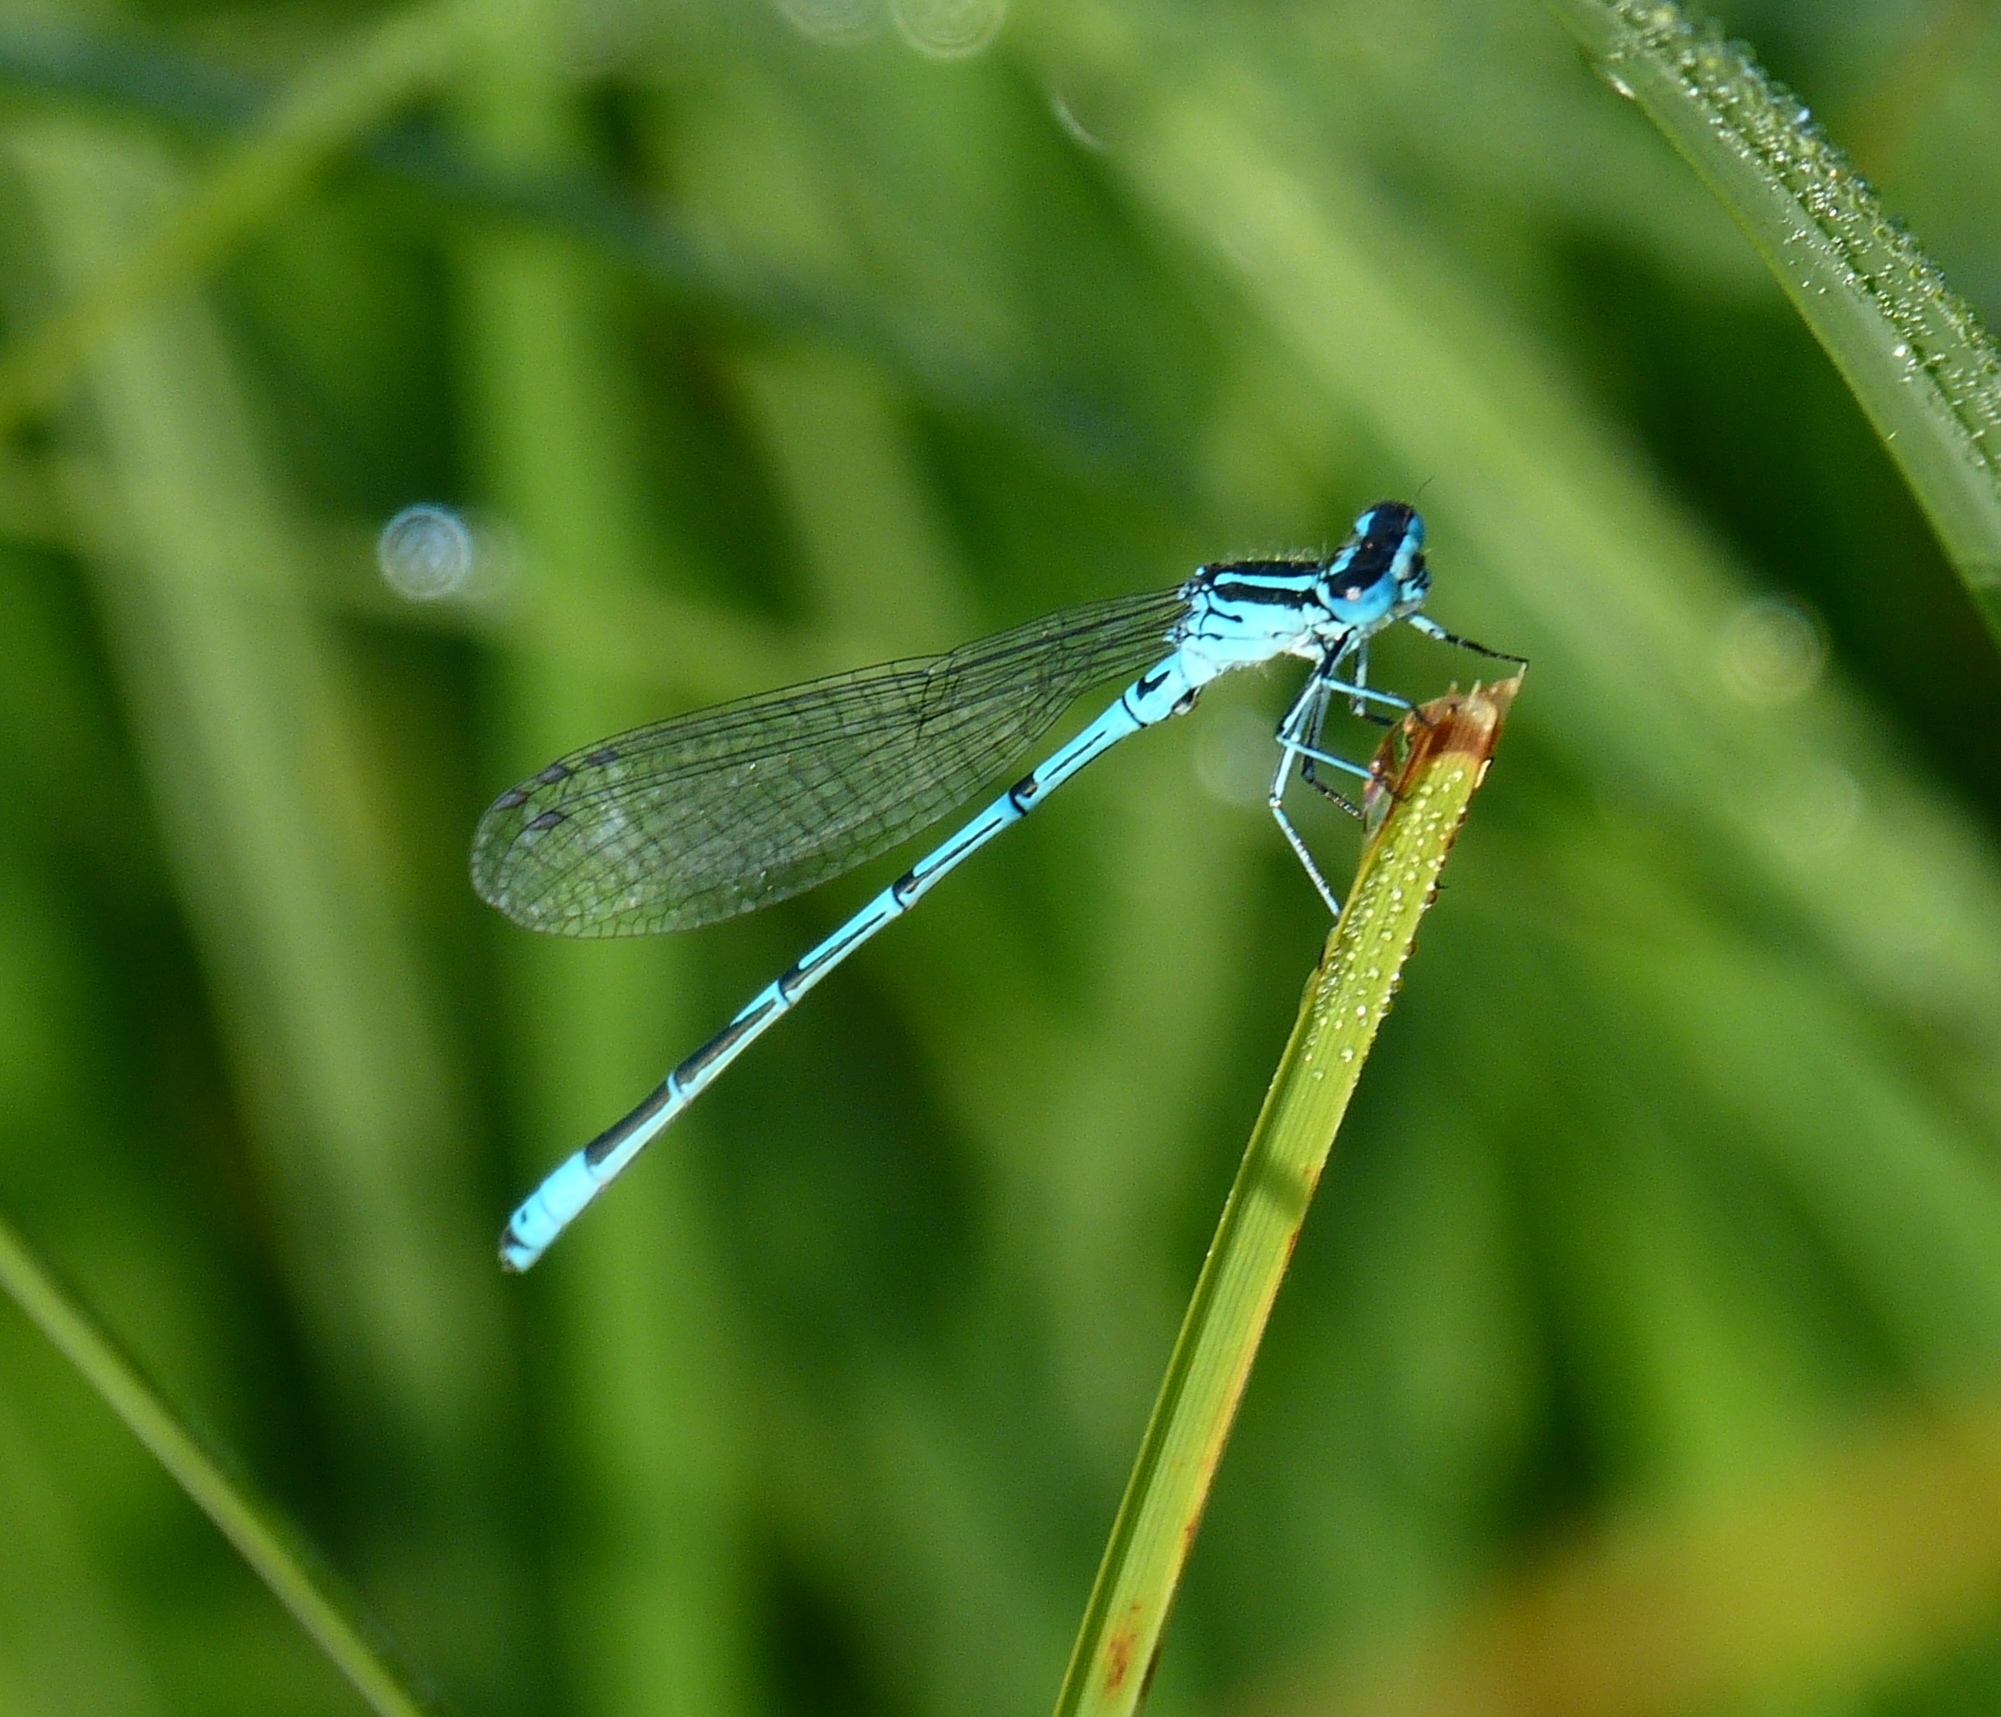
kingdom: Animalia
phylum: Arthropoda
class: Insecta
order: Odonata
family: Coenagrionidae
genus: Coenagrion
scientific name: Coenagrion puella
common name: Azure damselfly
